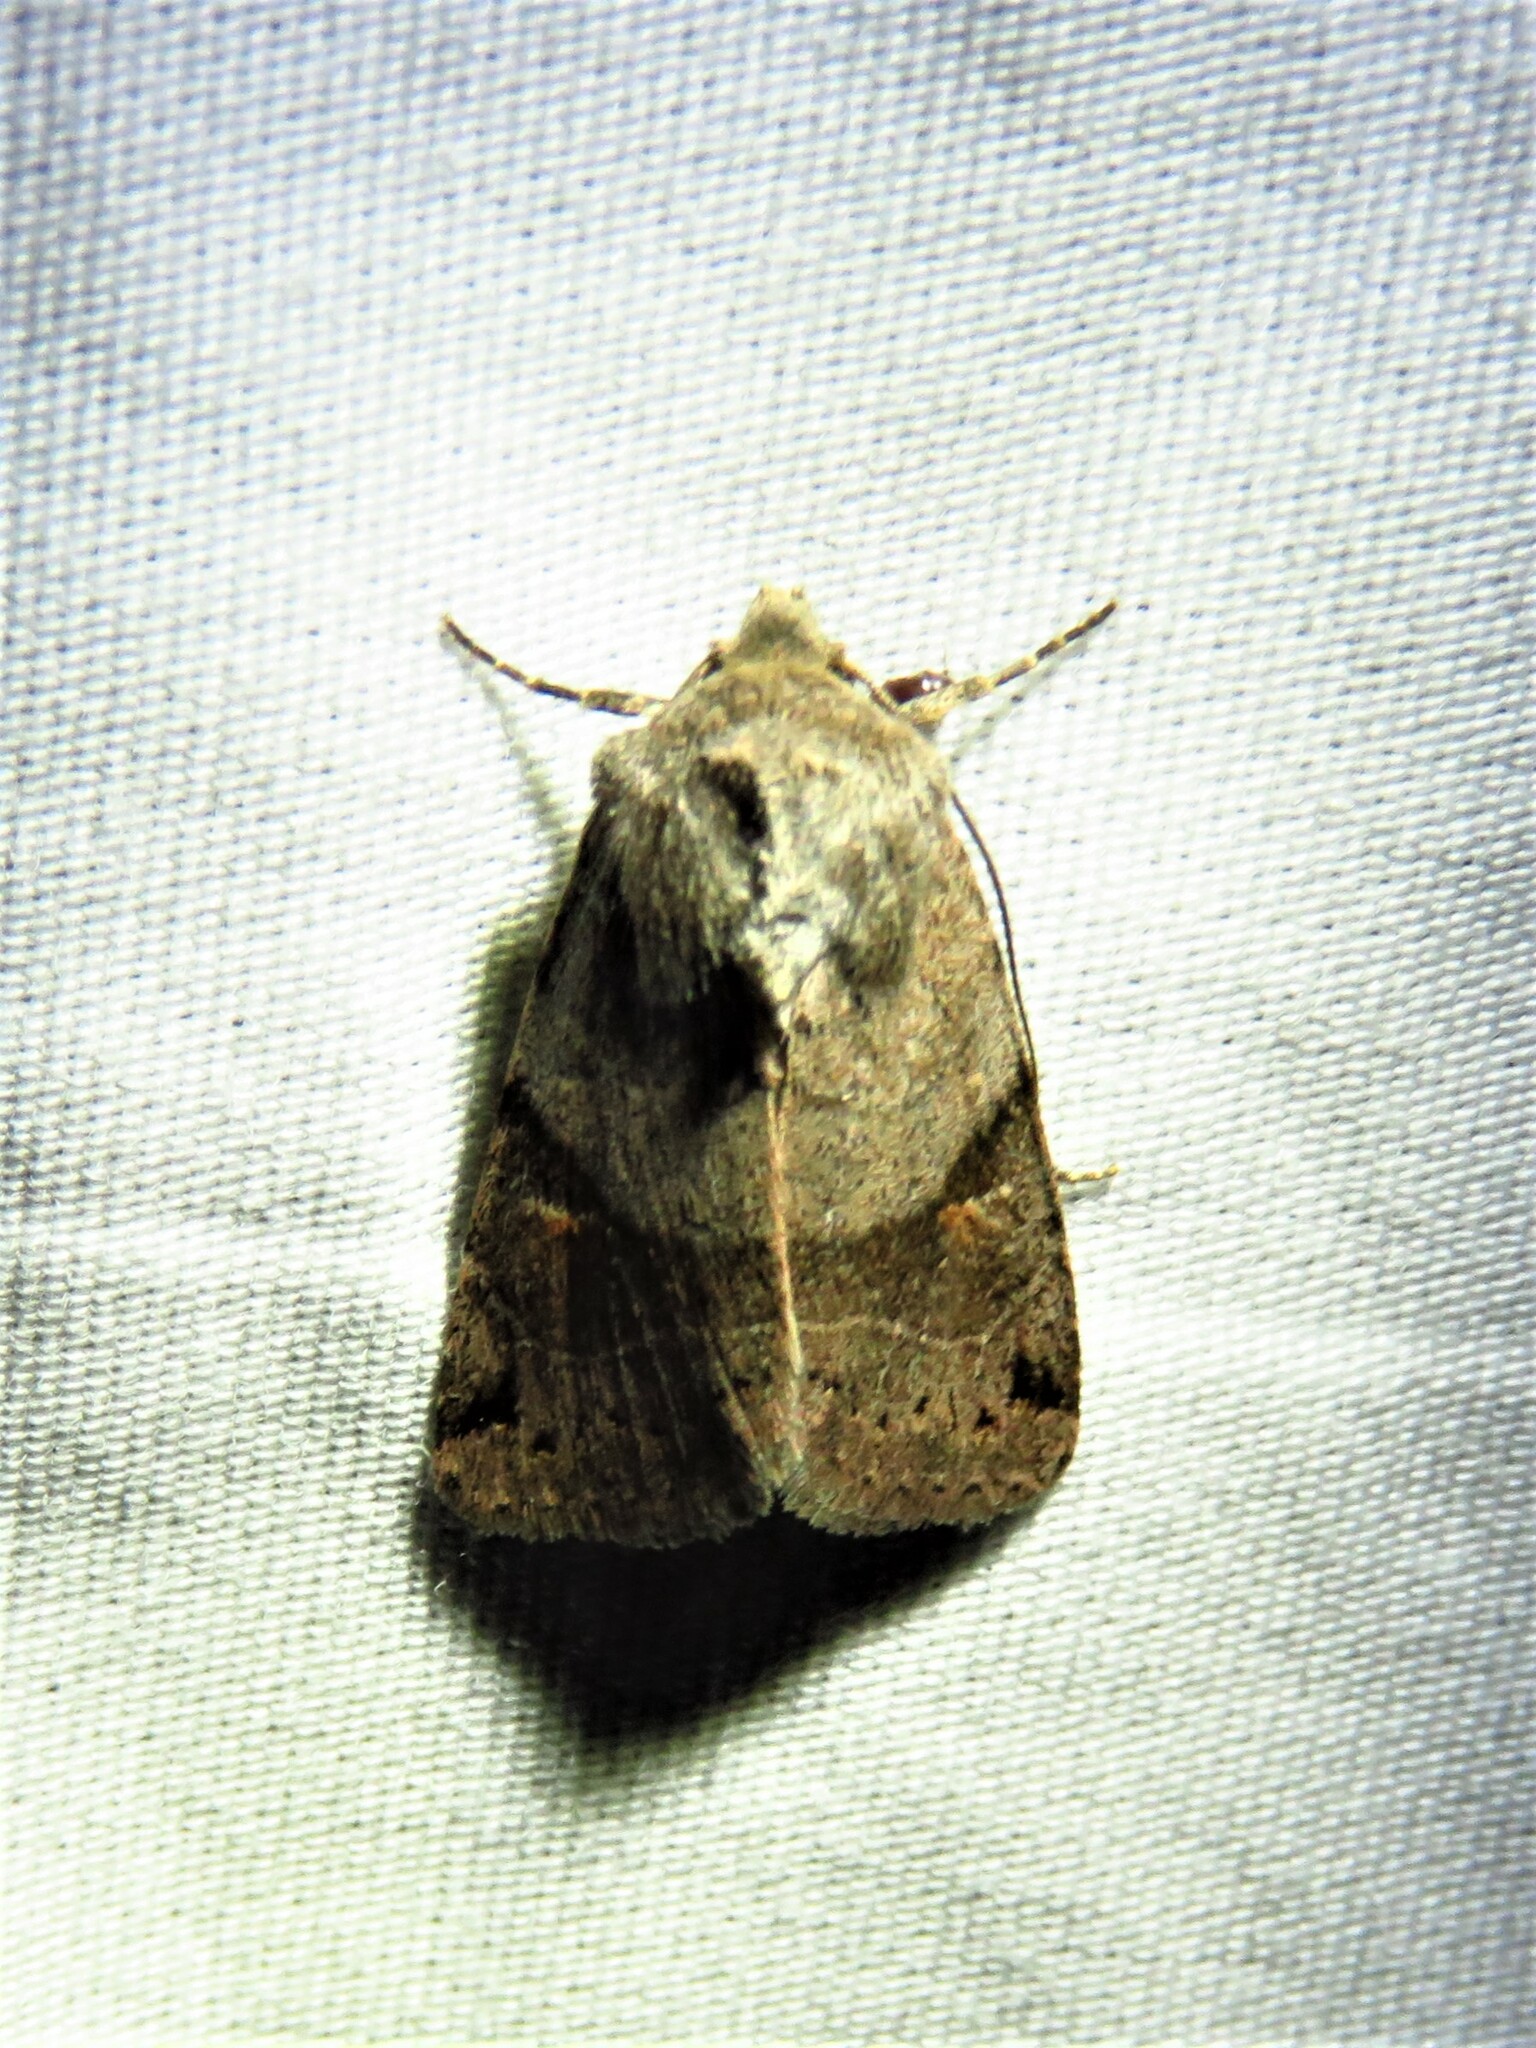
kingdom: Animalia
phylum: Arthropoda
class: Insecta
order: Lepidoptera
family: Noctuidae
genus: Ulolonche
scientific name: Ulolonche disticha
